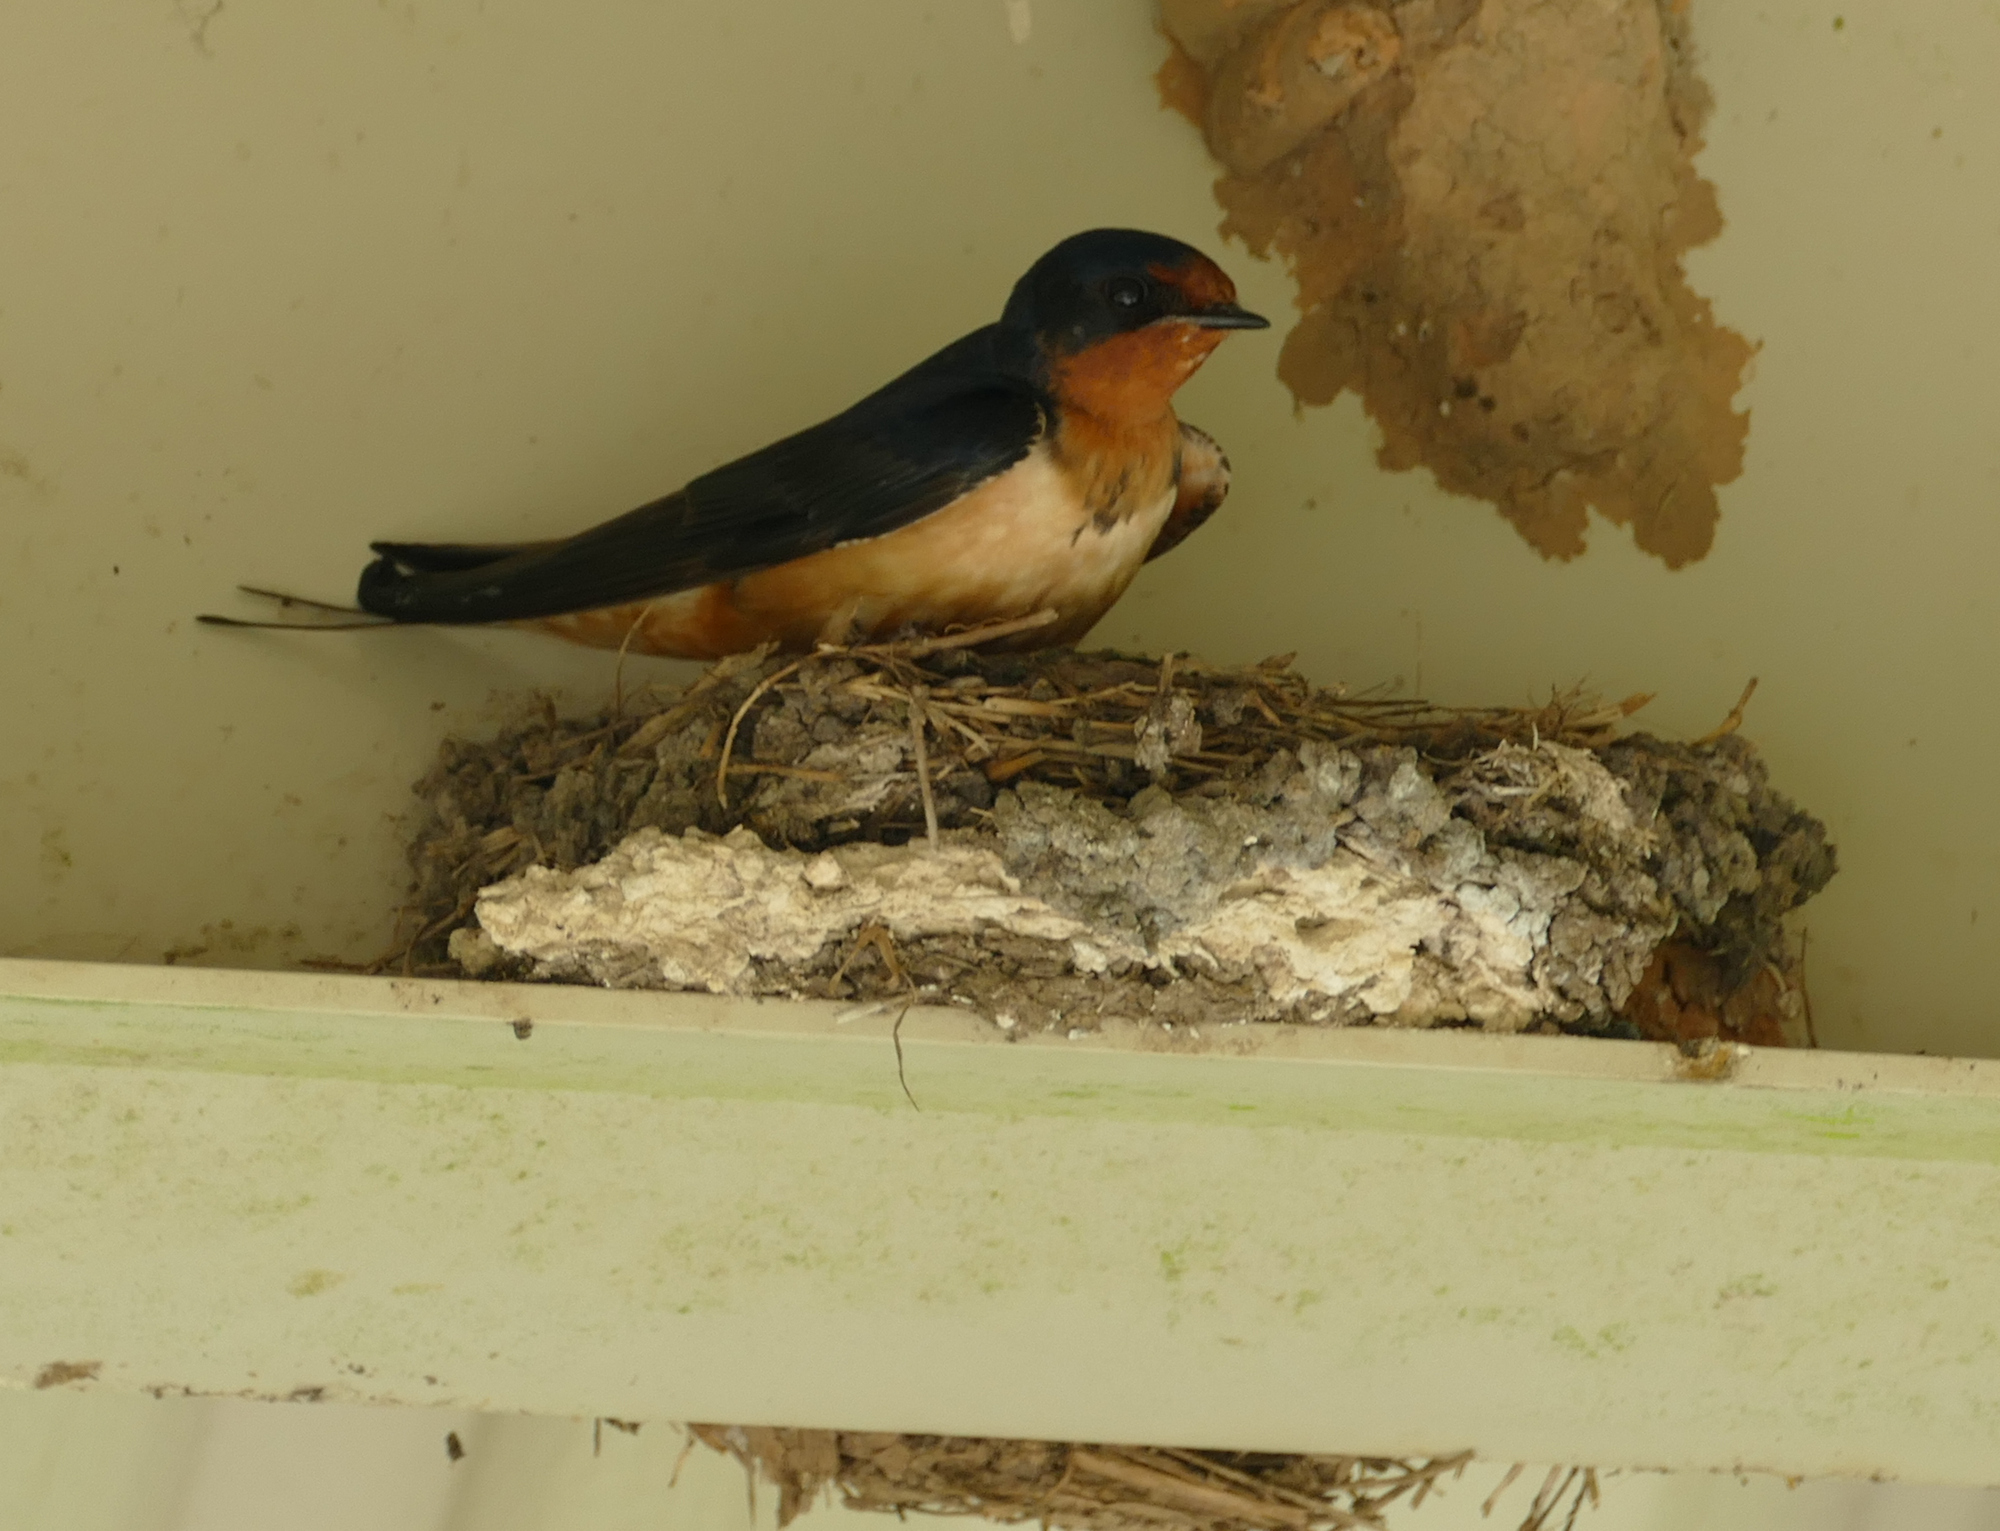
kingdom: Animalia
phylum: Chordata
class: Aves
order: Passeriformes
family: Hirundinidae
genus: Hirundo
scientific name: Hirundo rustica
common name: Barn swallow
